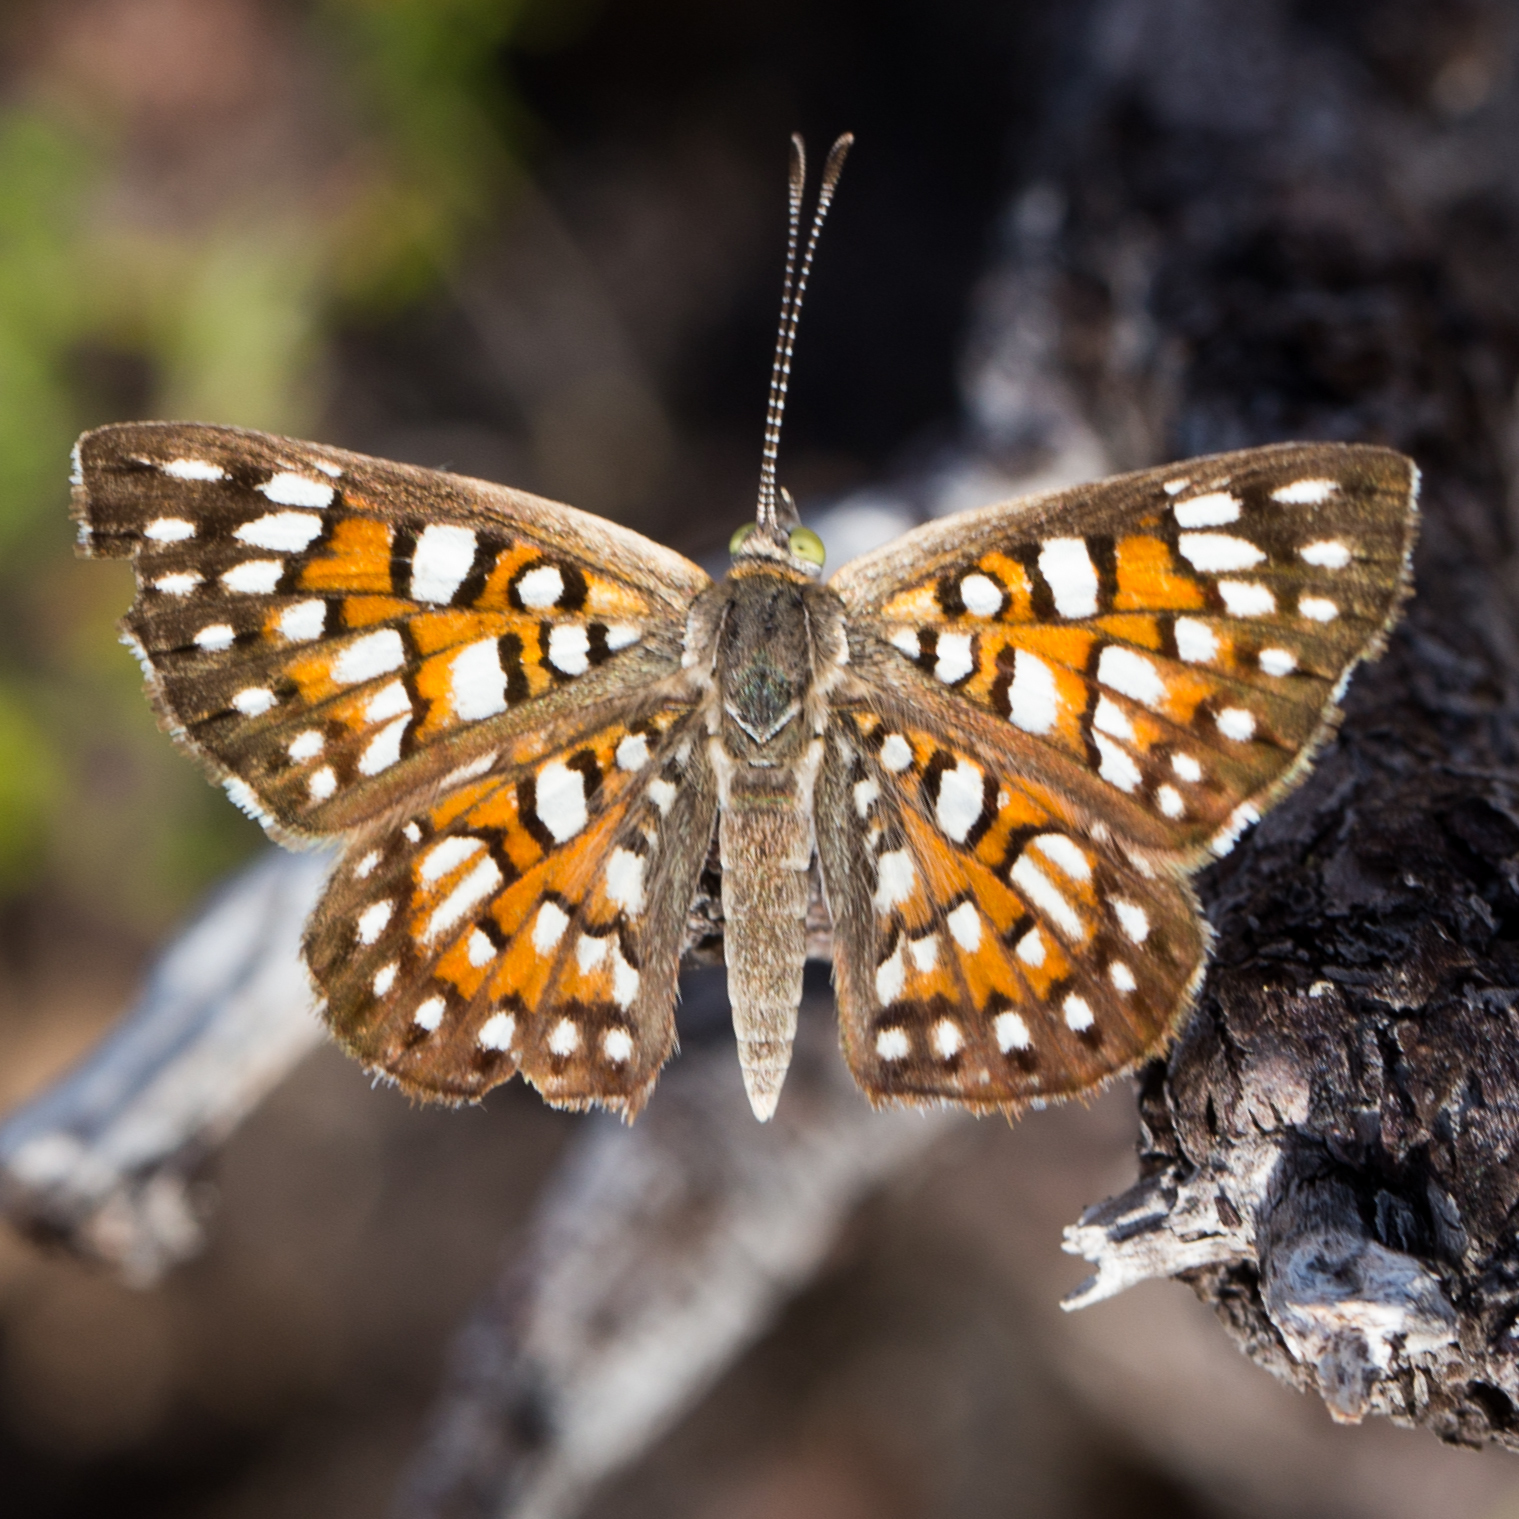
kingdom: Animalia
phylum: Arthropoda
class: Insecta
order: Lepidoptera
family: Riodinidae
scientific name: Riodinidae
